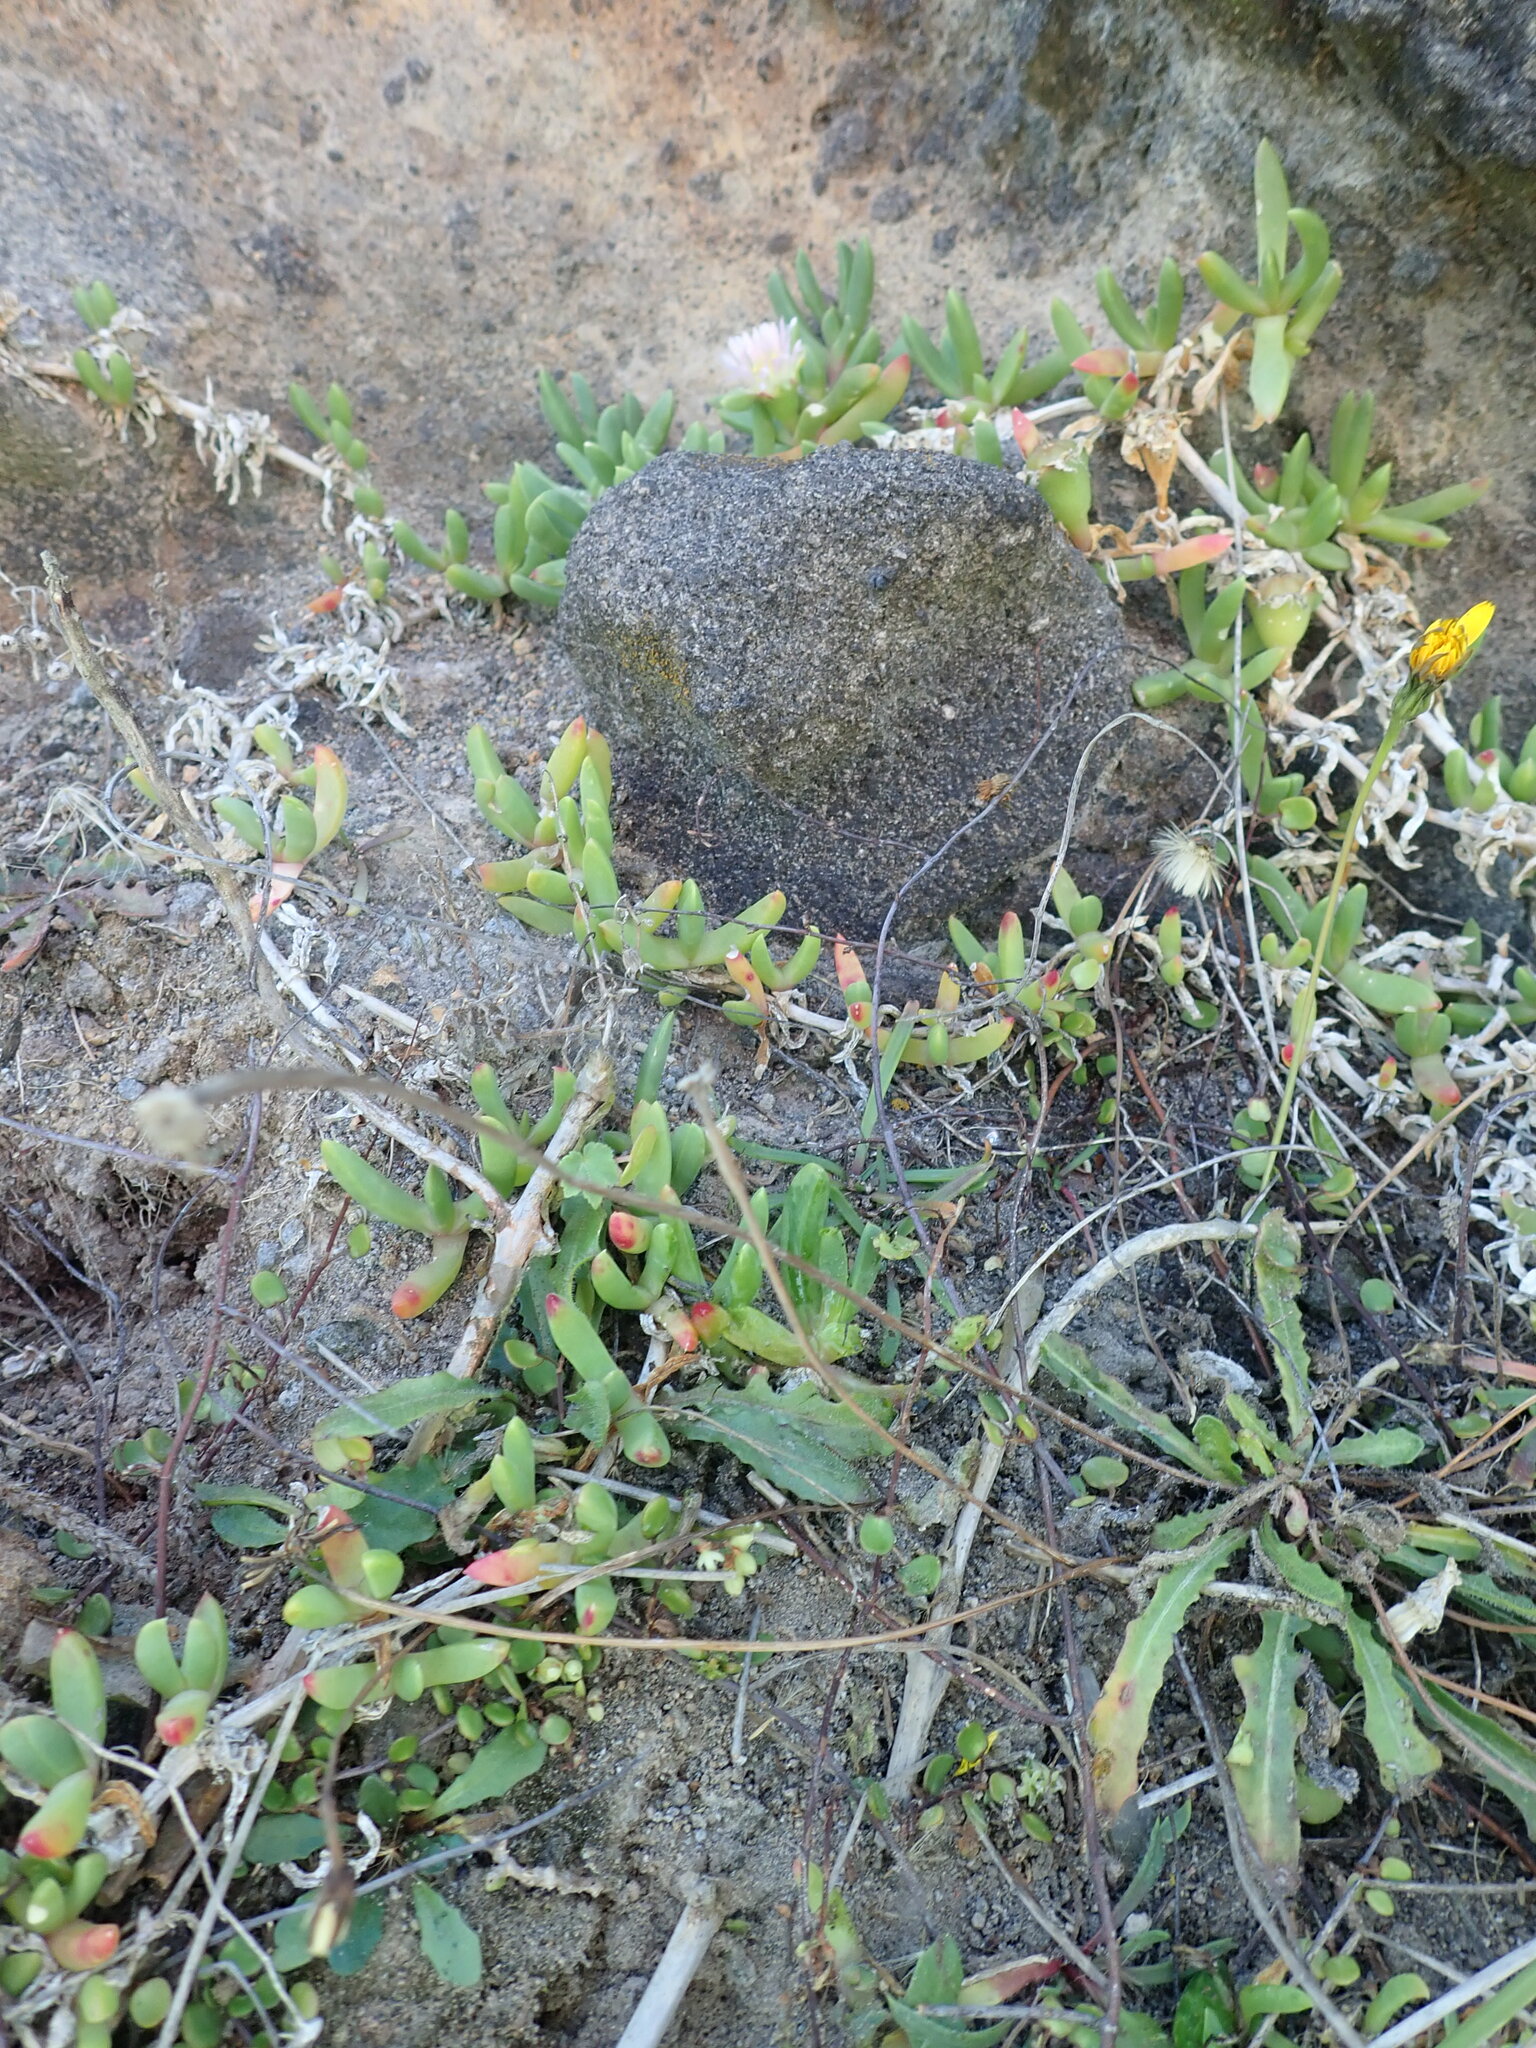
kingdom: Plantae
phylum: Tracheophyta
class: Magnoliopsida
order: Caryophyllales
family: Aizoaceae
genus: Disphyma
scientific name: Disphyma australe
